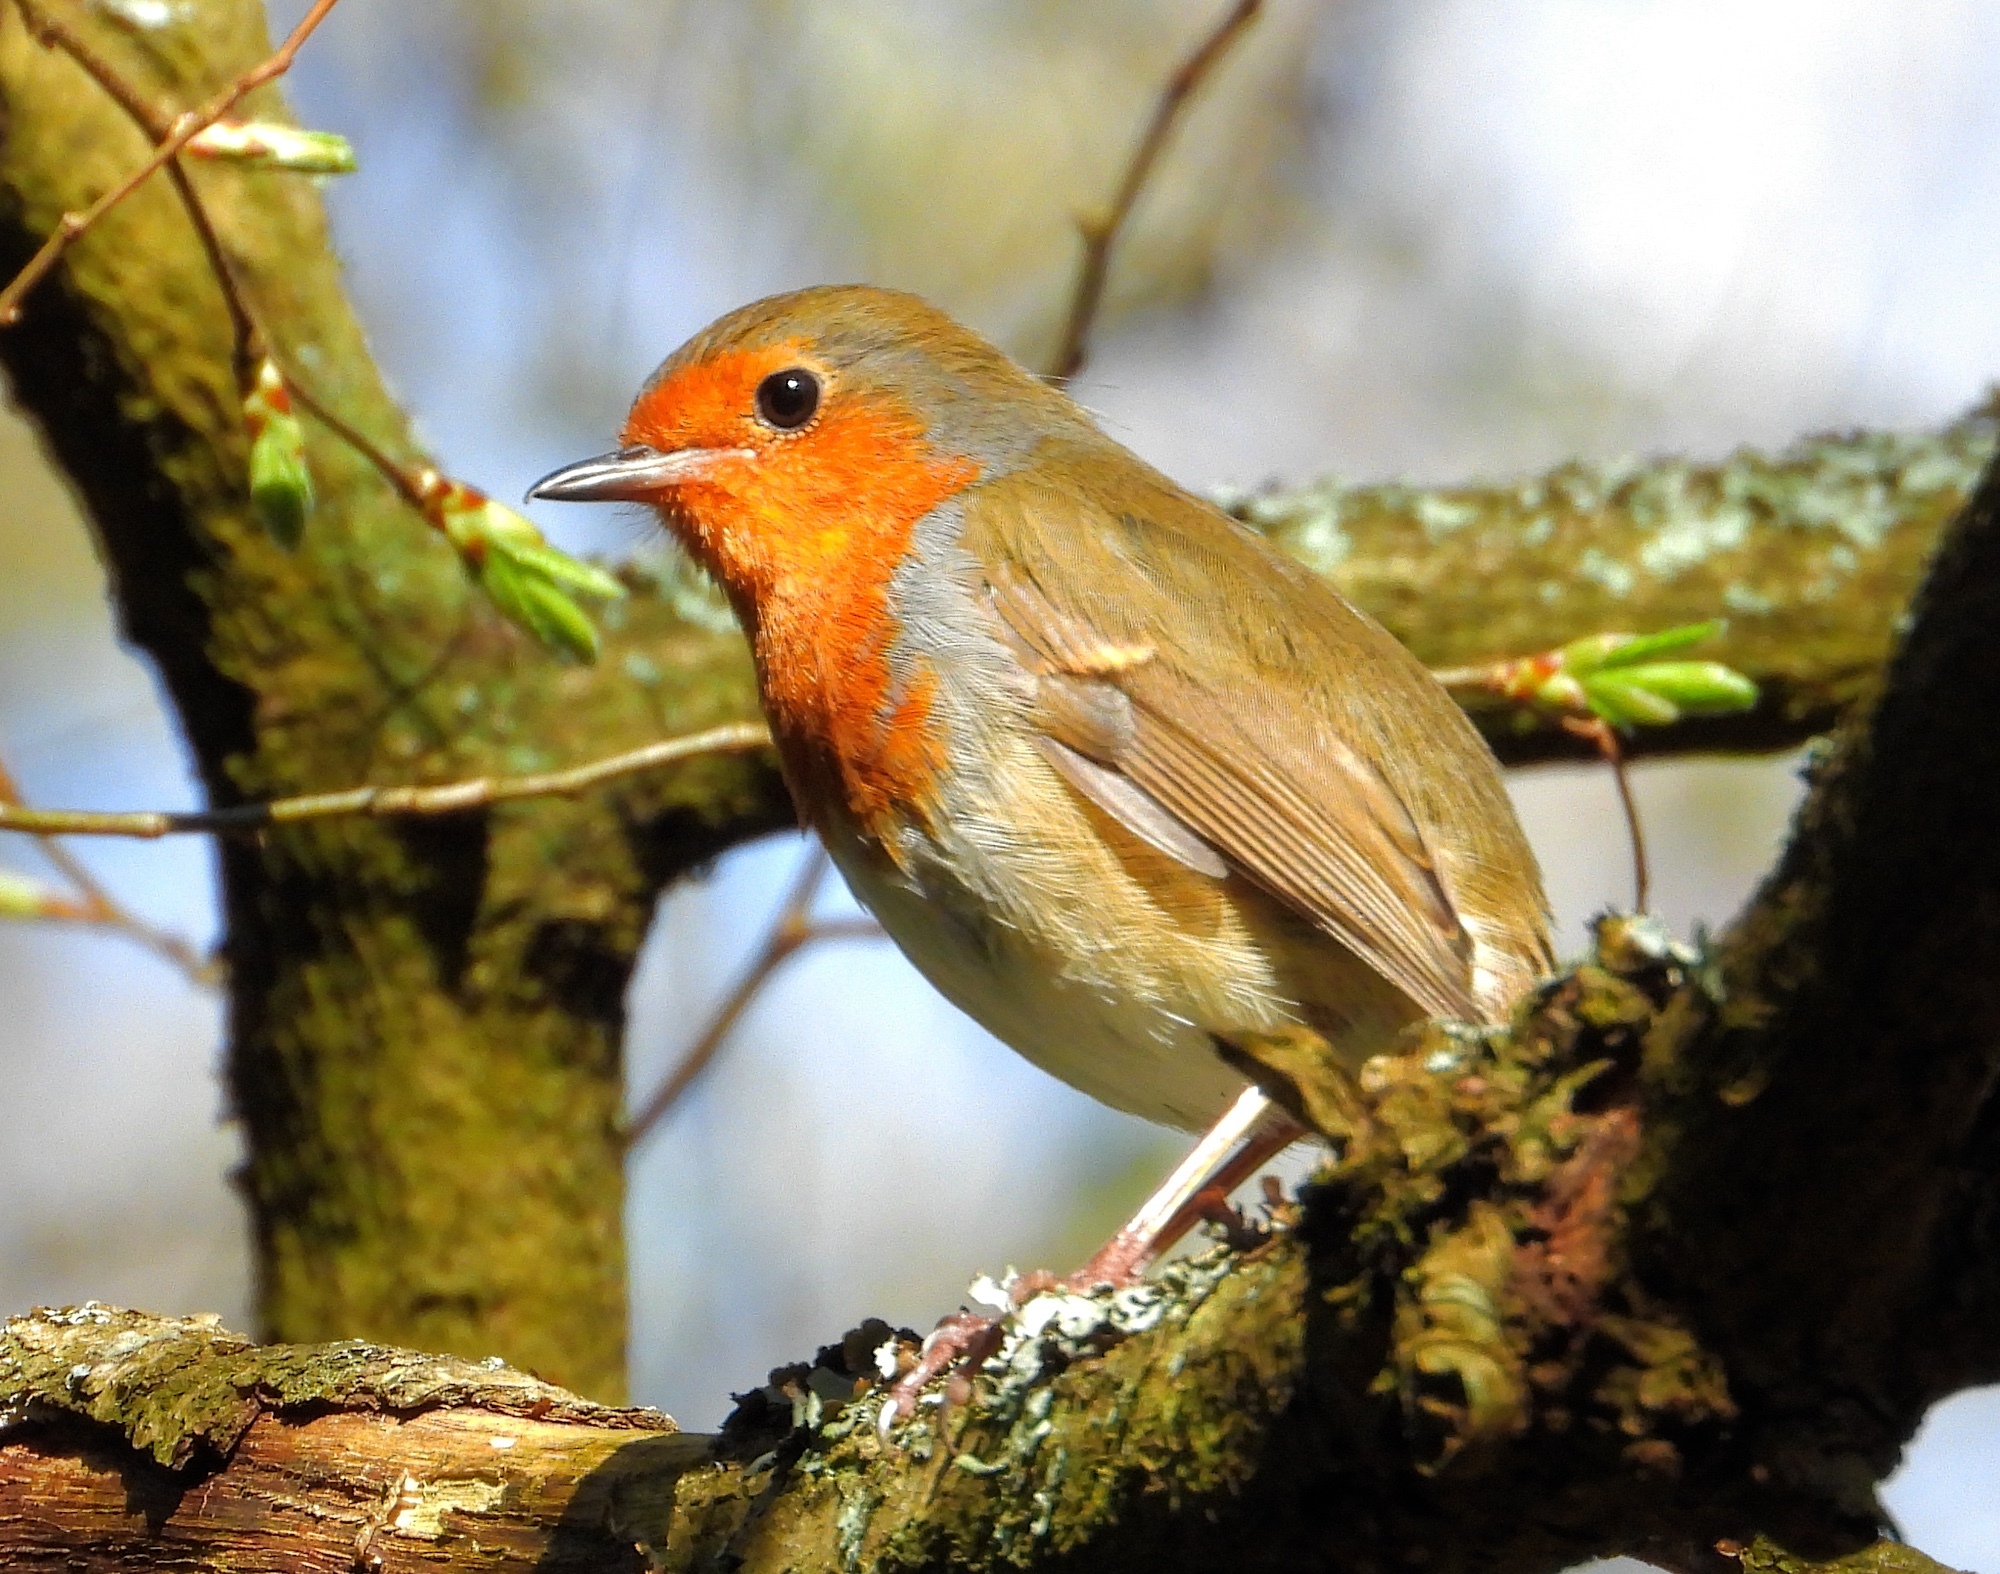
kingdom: Animalia
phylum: Chordata
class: Aves
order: Passeriformes
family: Muscicapidae
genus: Erithacus
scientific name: Erithacus rubecula
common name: European robin
